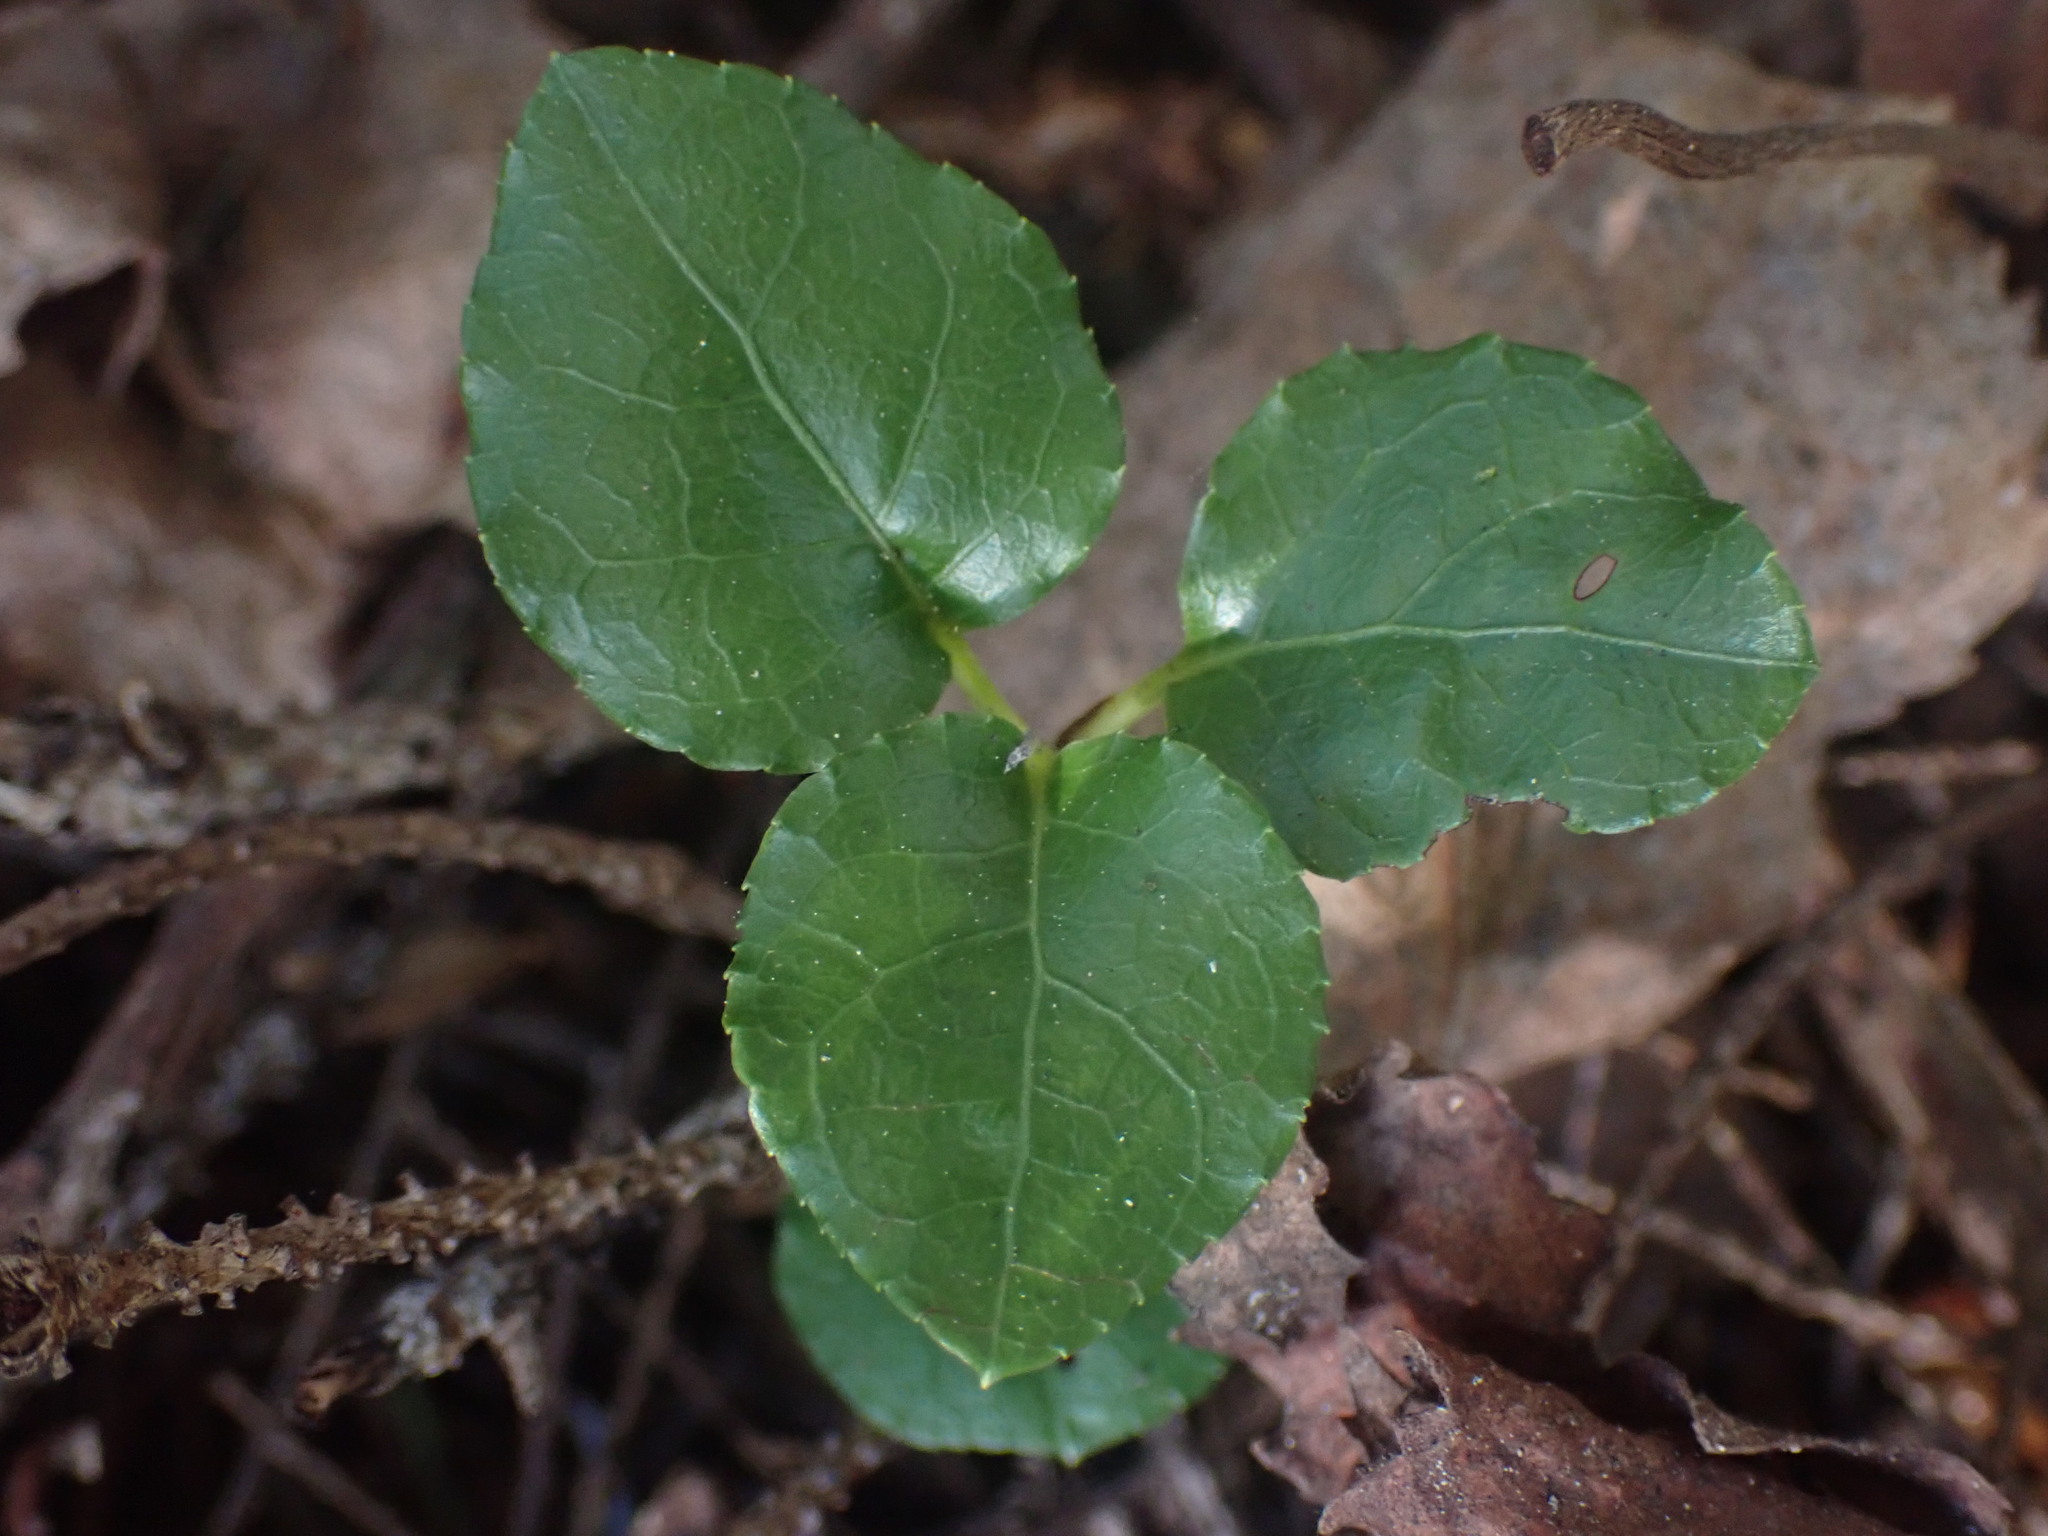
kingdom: Plantae
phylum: Tracheophyta
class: Magnoliopsida
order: Ericales
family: Ericaceae
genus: Orthilia
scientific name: Orthilia secunda
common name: One-sided orthilia
